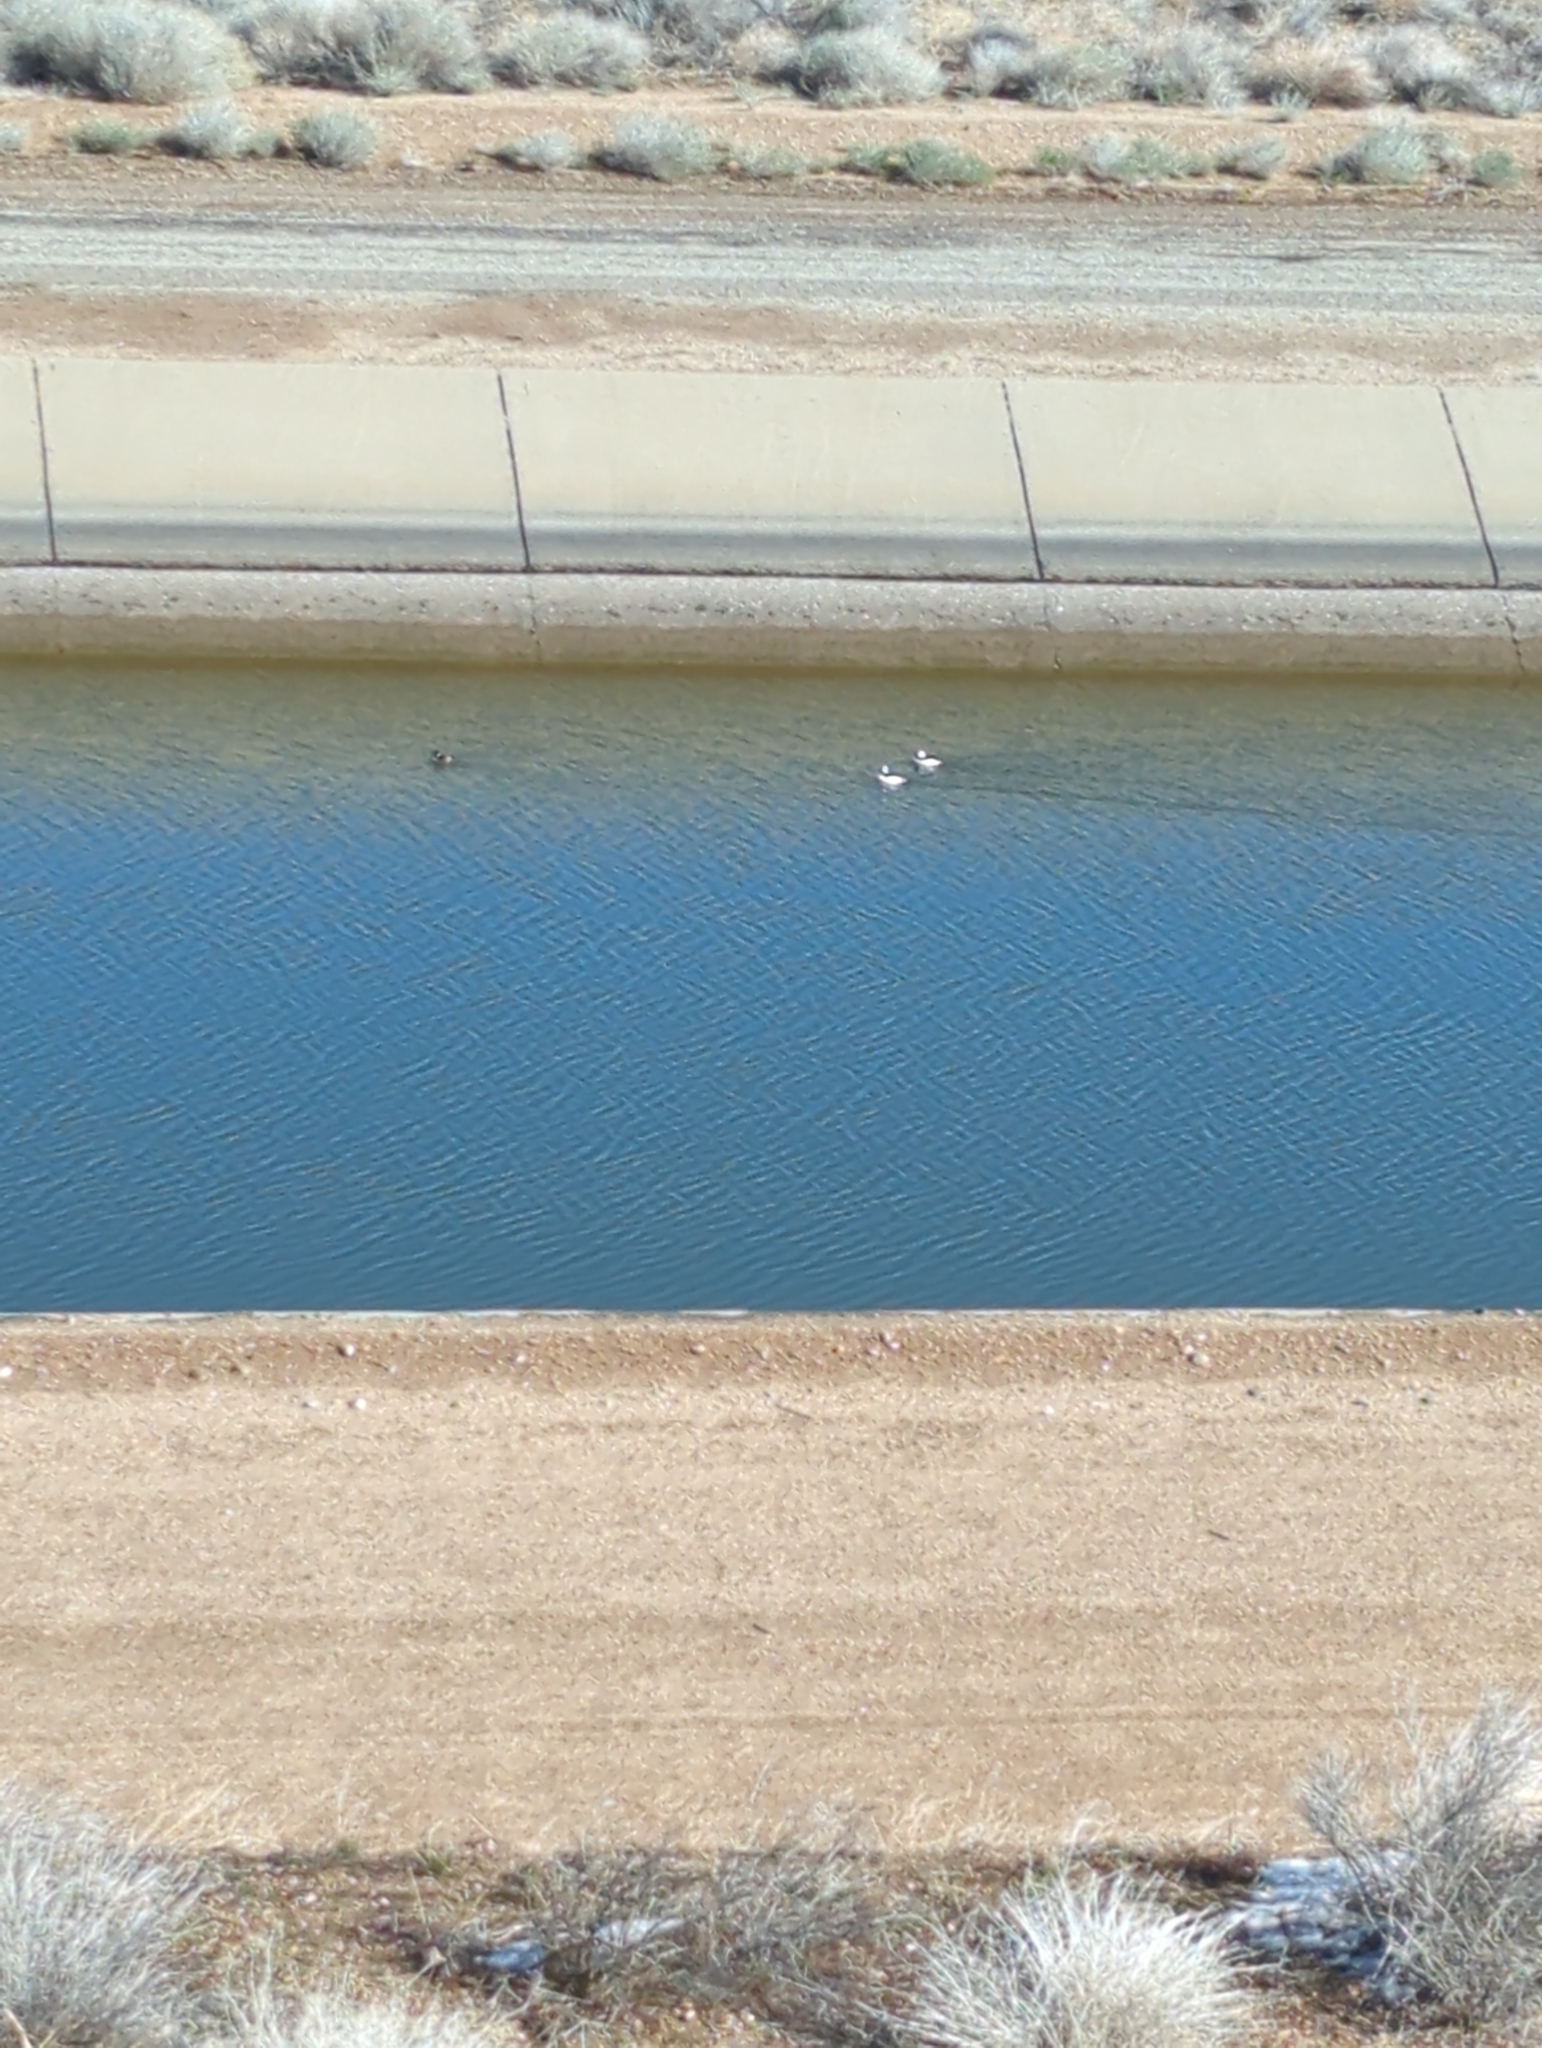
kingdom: Animalia
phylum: Chordata
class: Aves
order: Anseriformes
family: Anatidae
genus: Bucephala
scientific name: Bucephala albeola
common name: Bufflehead
